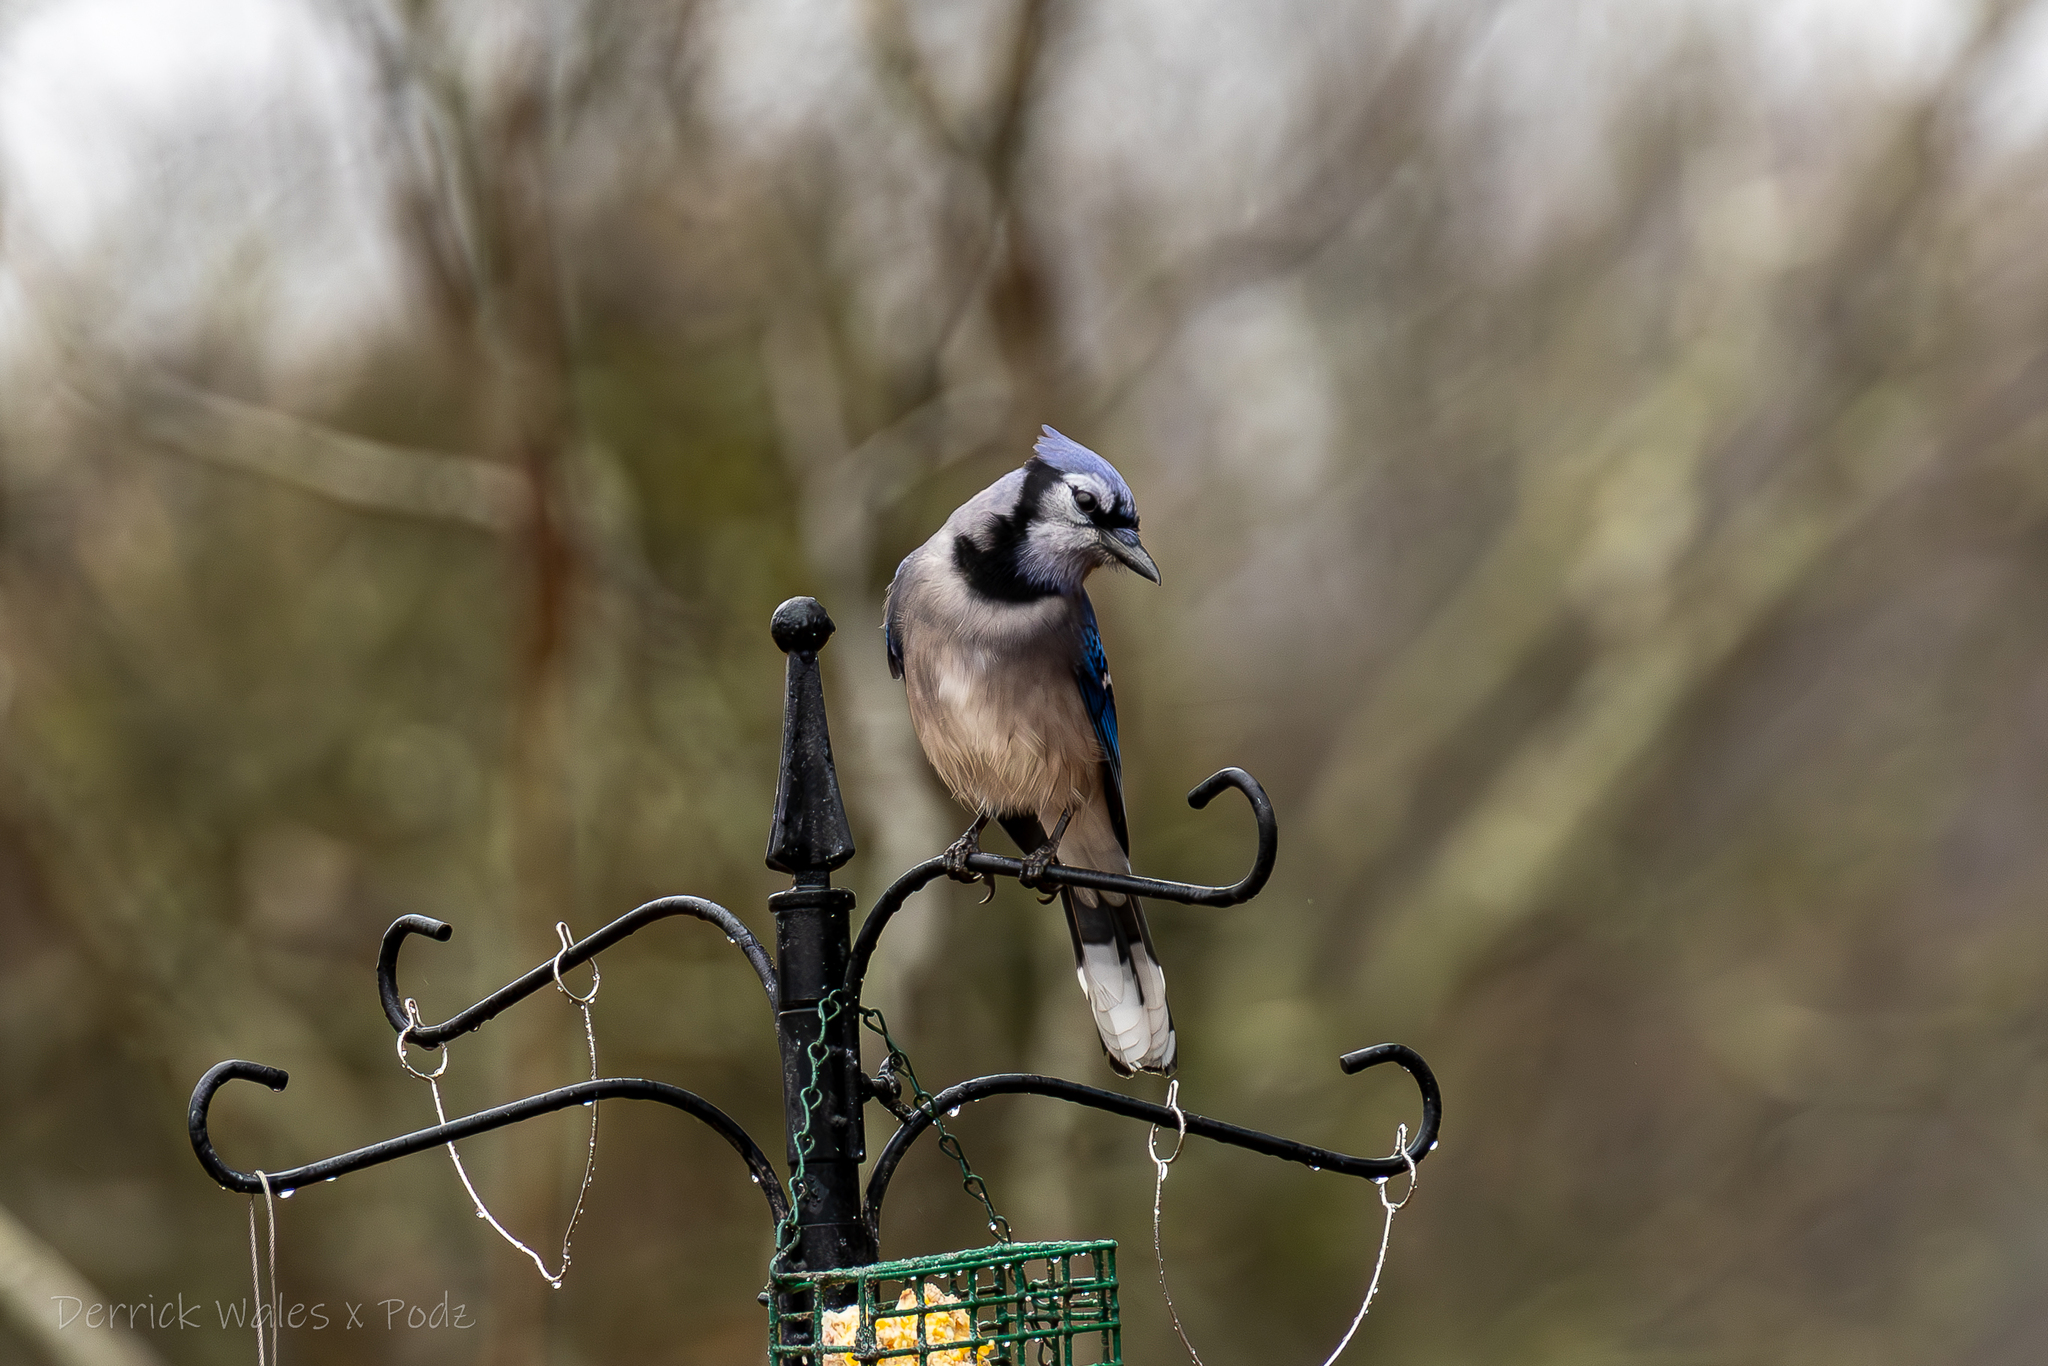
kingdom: Animalia
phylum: Chordata
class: Aves
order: Passeriformes
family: Corvidae
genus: Cyanocitta
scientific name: Cyanocitta cristata
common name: Blue jay
